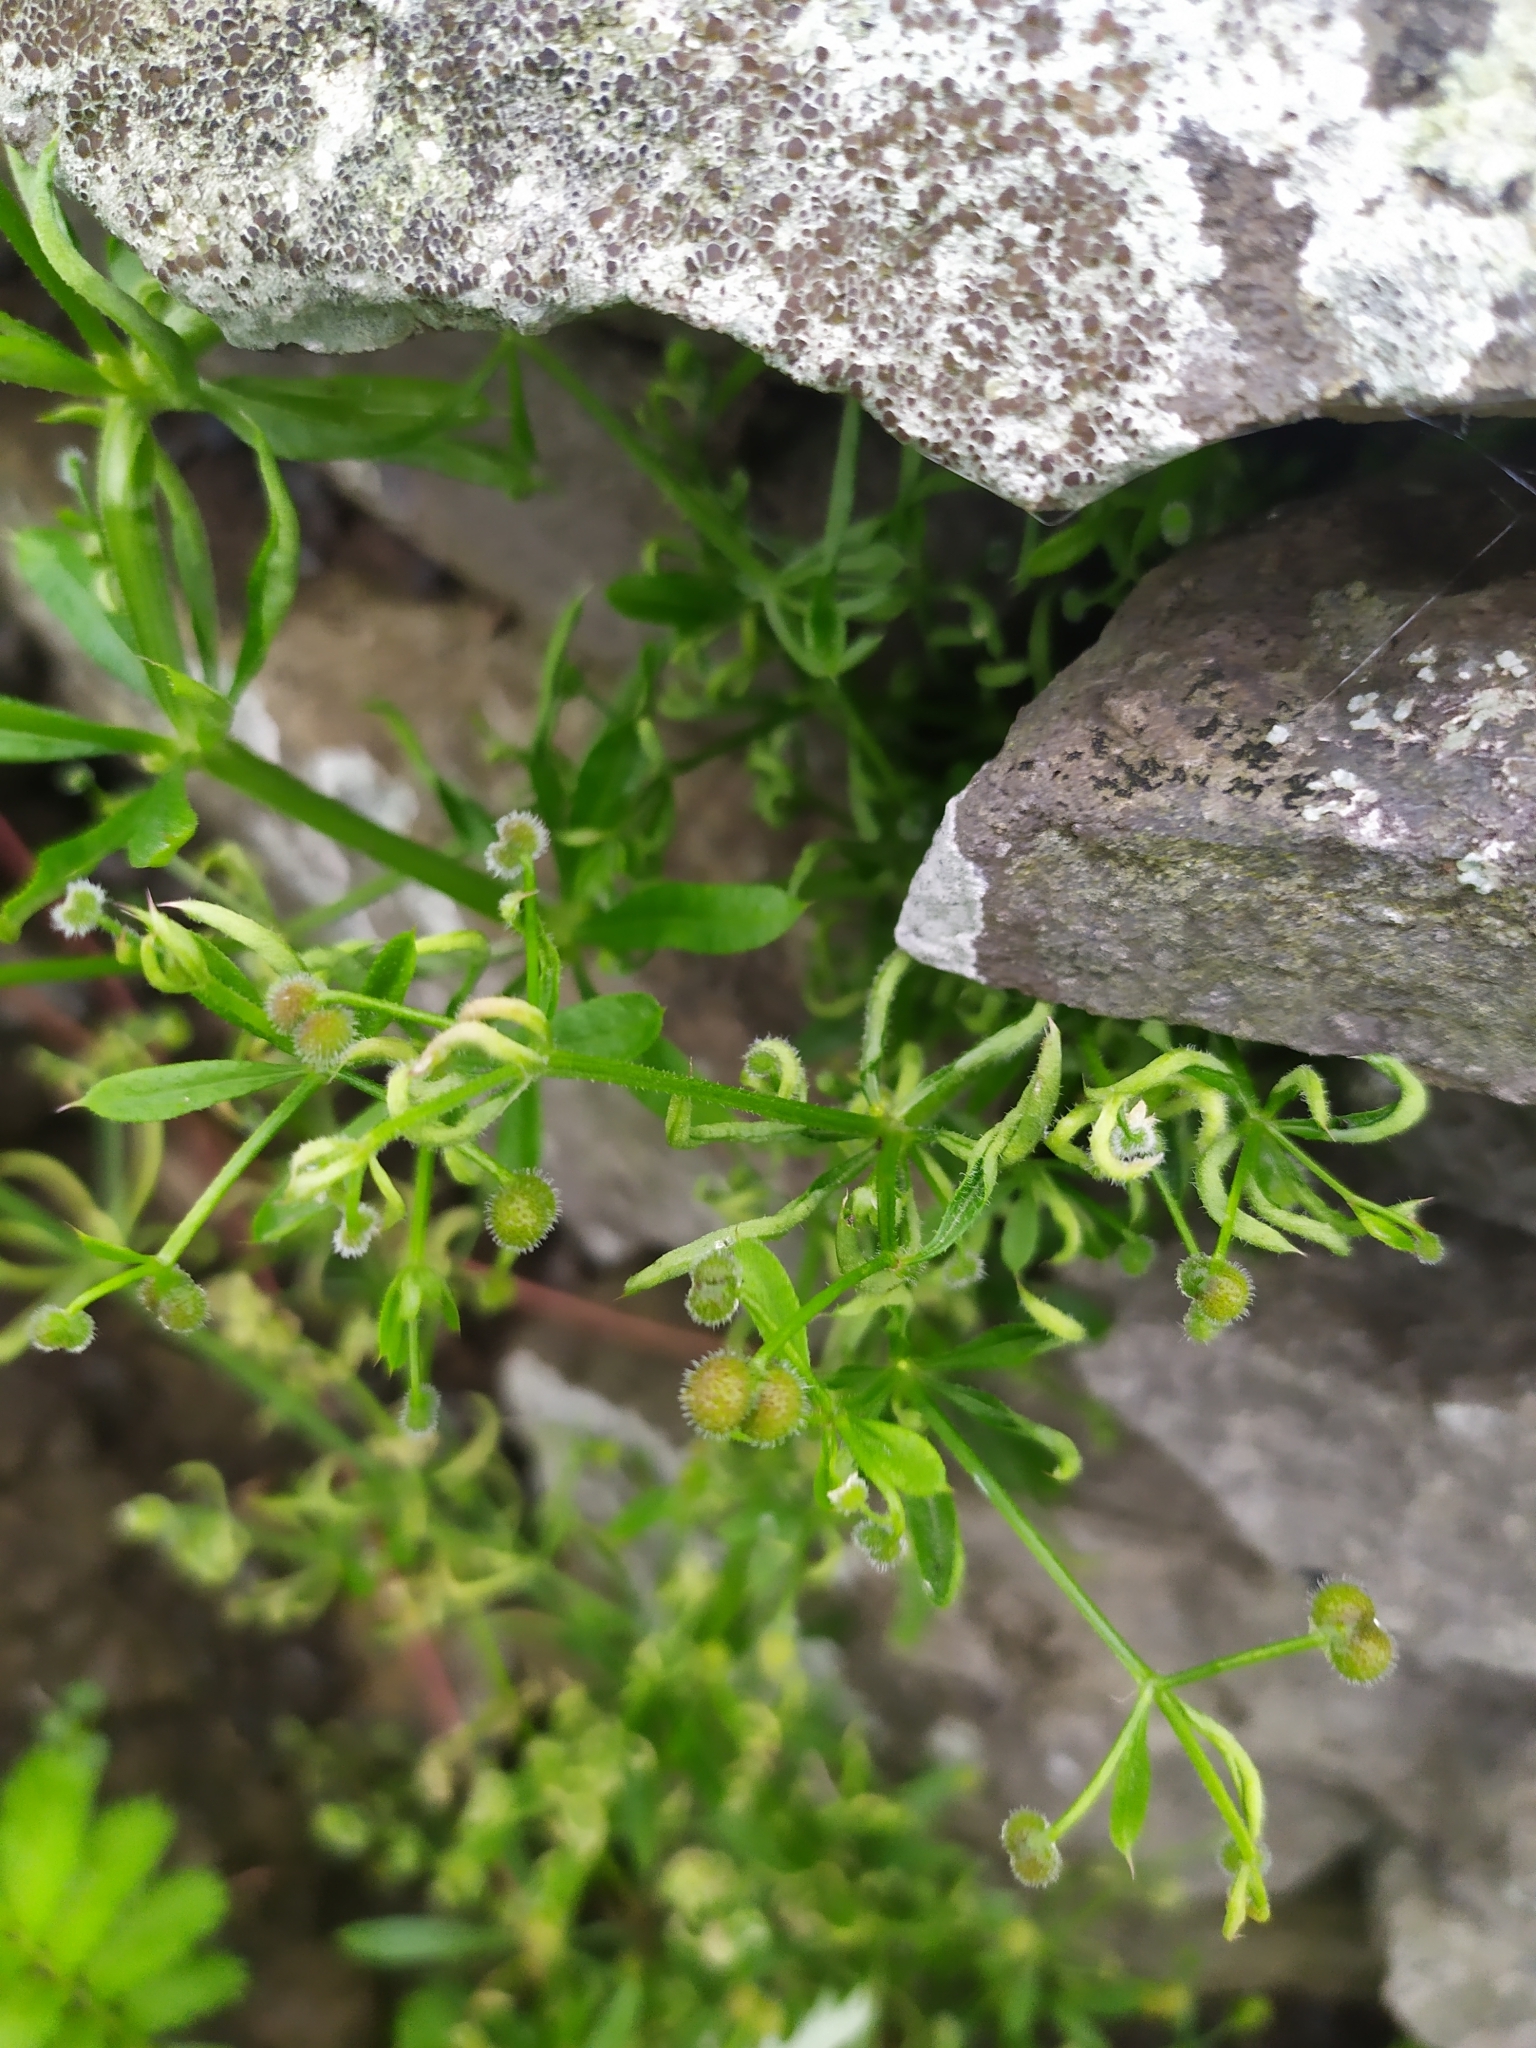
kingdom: Animalia
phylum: Arthropoda
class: Arachnida
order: Trombidiformes
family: Eriophyidae
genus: Cecidophyes
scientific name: Cecidophyes rouhollahi
